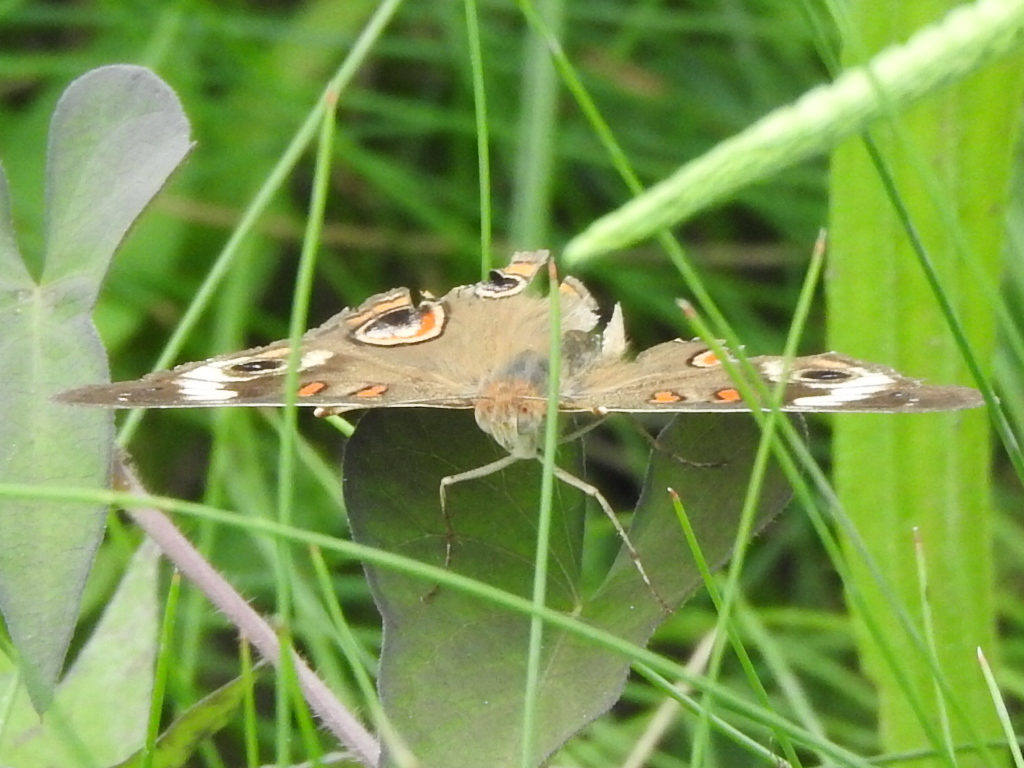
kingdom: Animalia
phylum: Arthropoda
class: Insecta
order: Lepidoptera
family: Nymphalidae
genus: Junonia
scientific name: Junonia coenia
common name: Common buckeye
